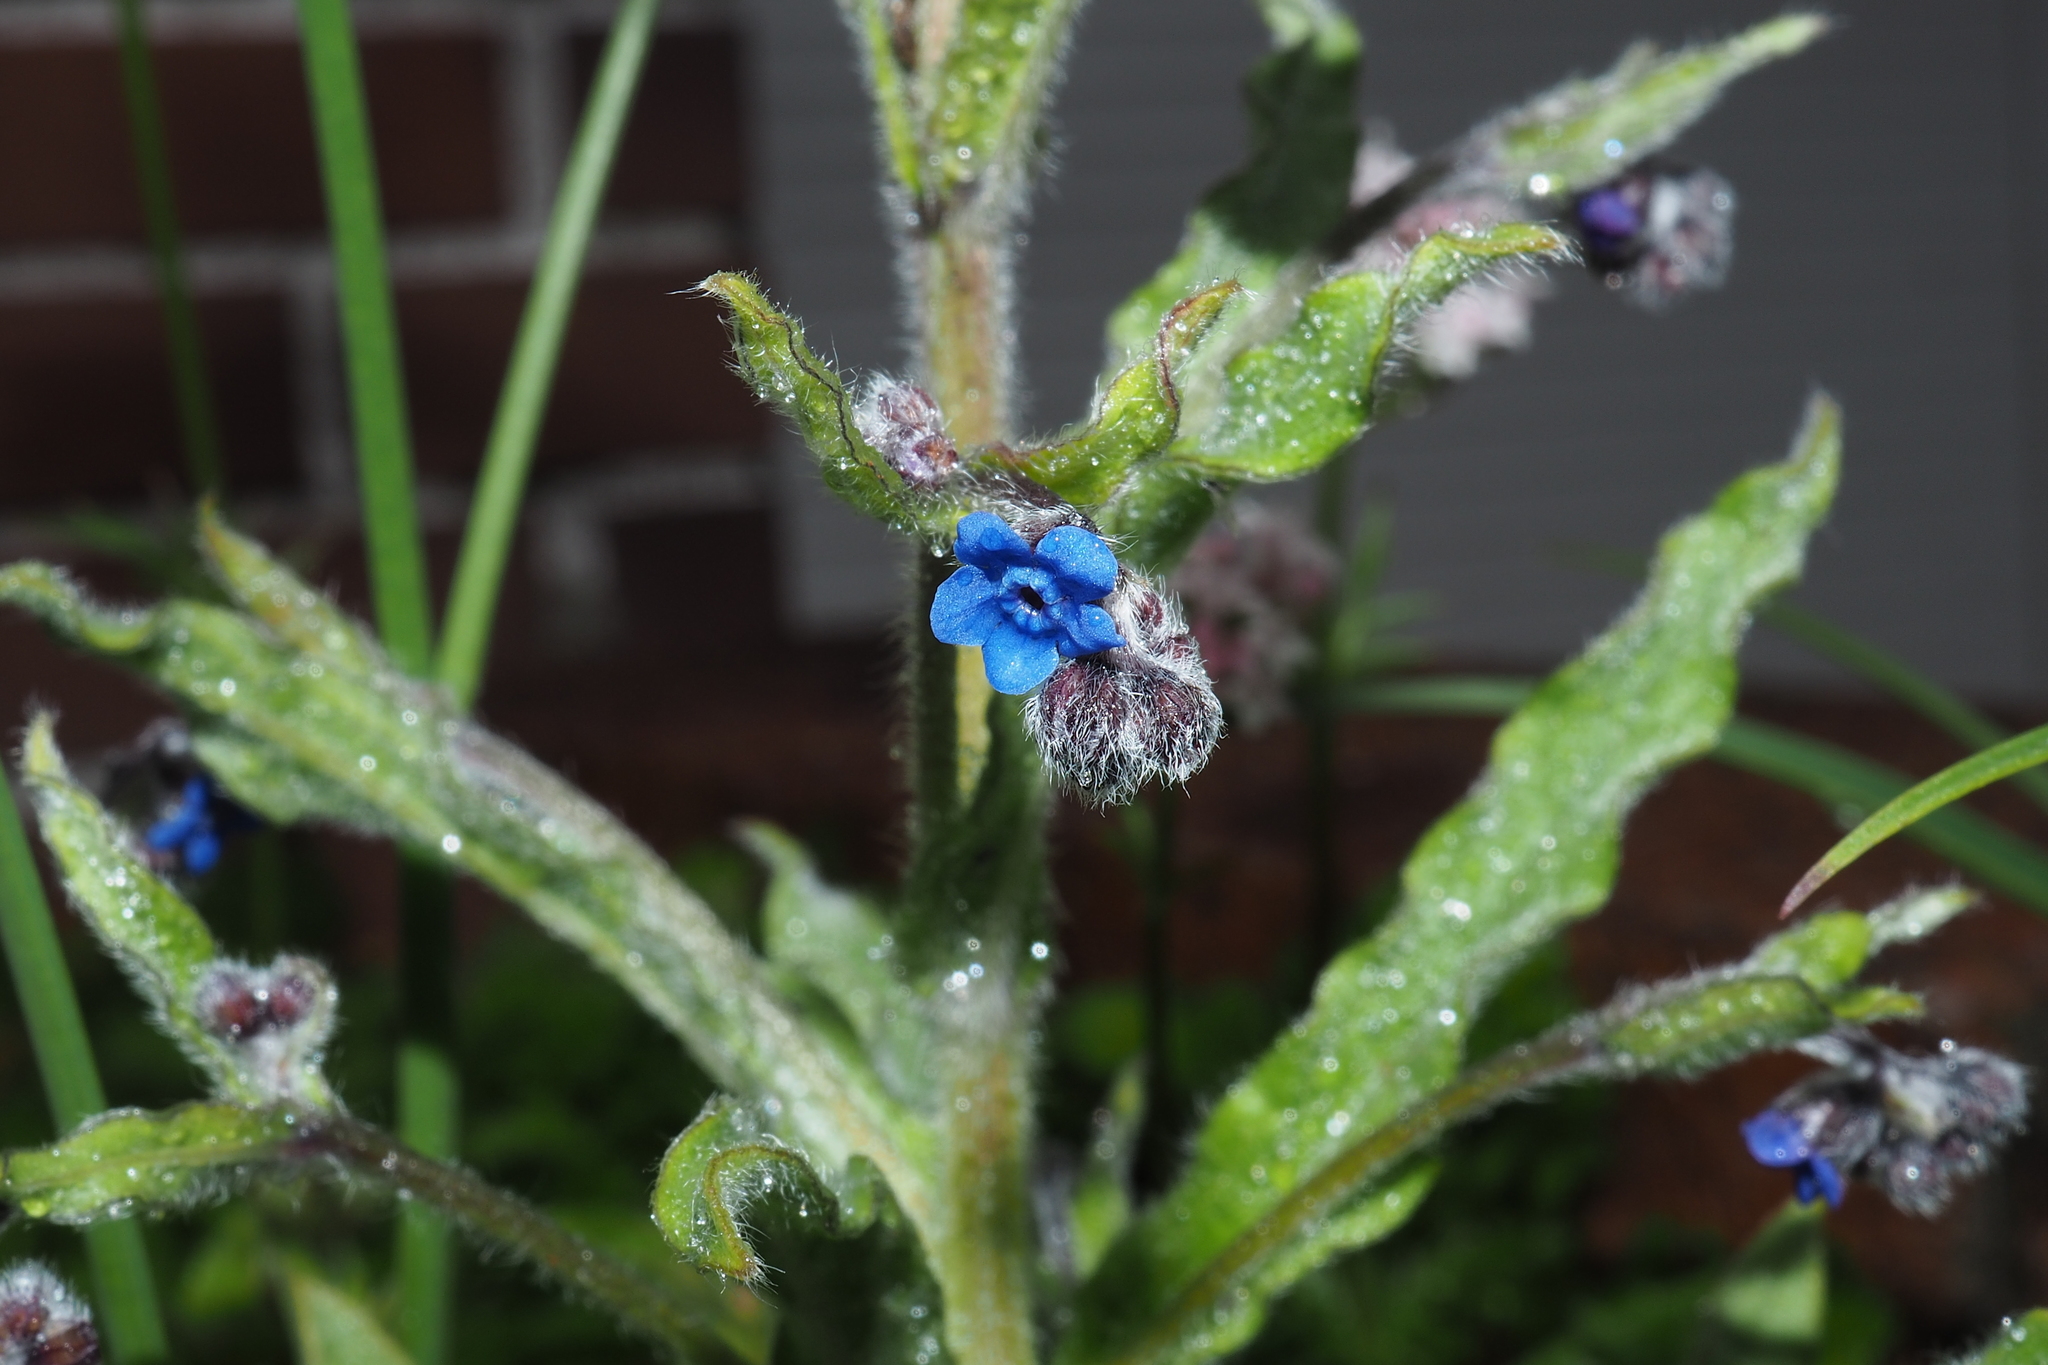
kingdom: Plantae
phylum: Tracheophyta
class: Magnoliopsida
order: Boraginales
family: Boraginaceae
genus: Cynoglossum
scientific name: Cynoglossum alpestre
